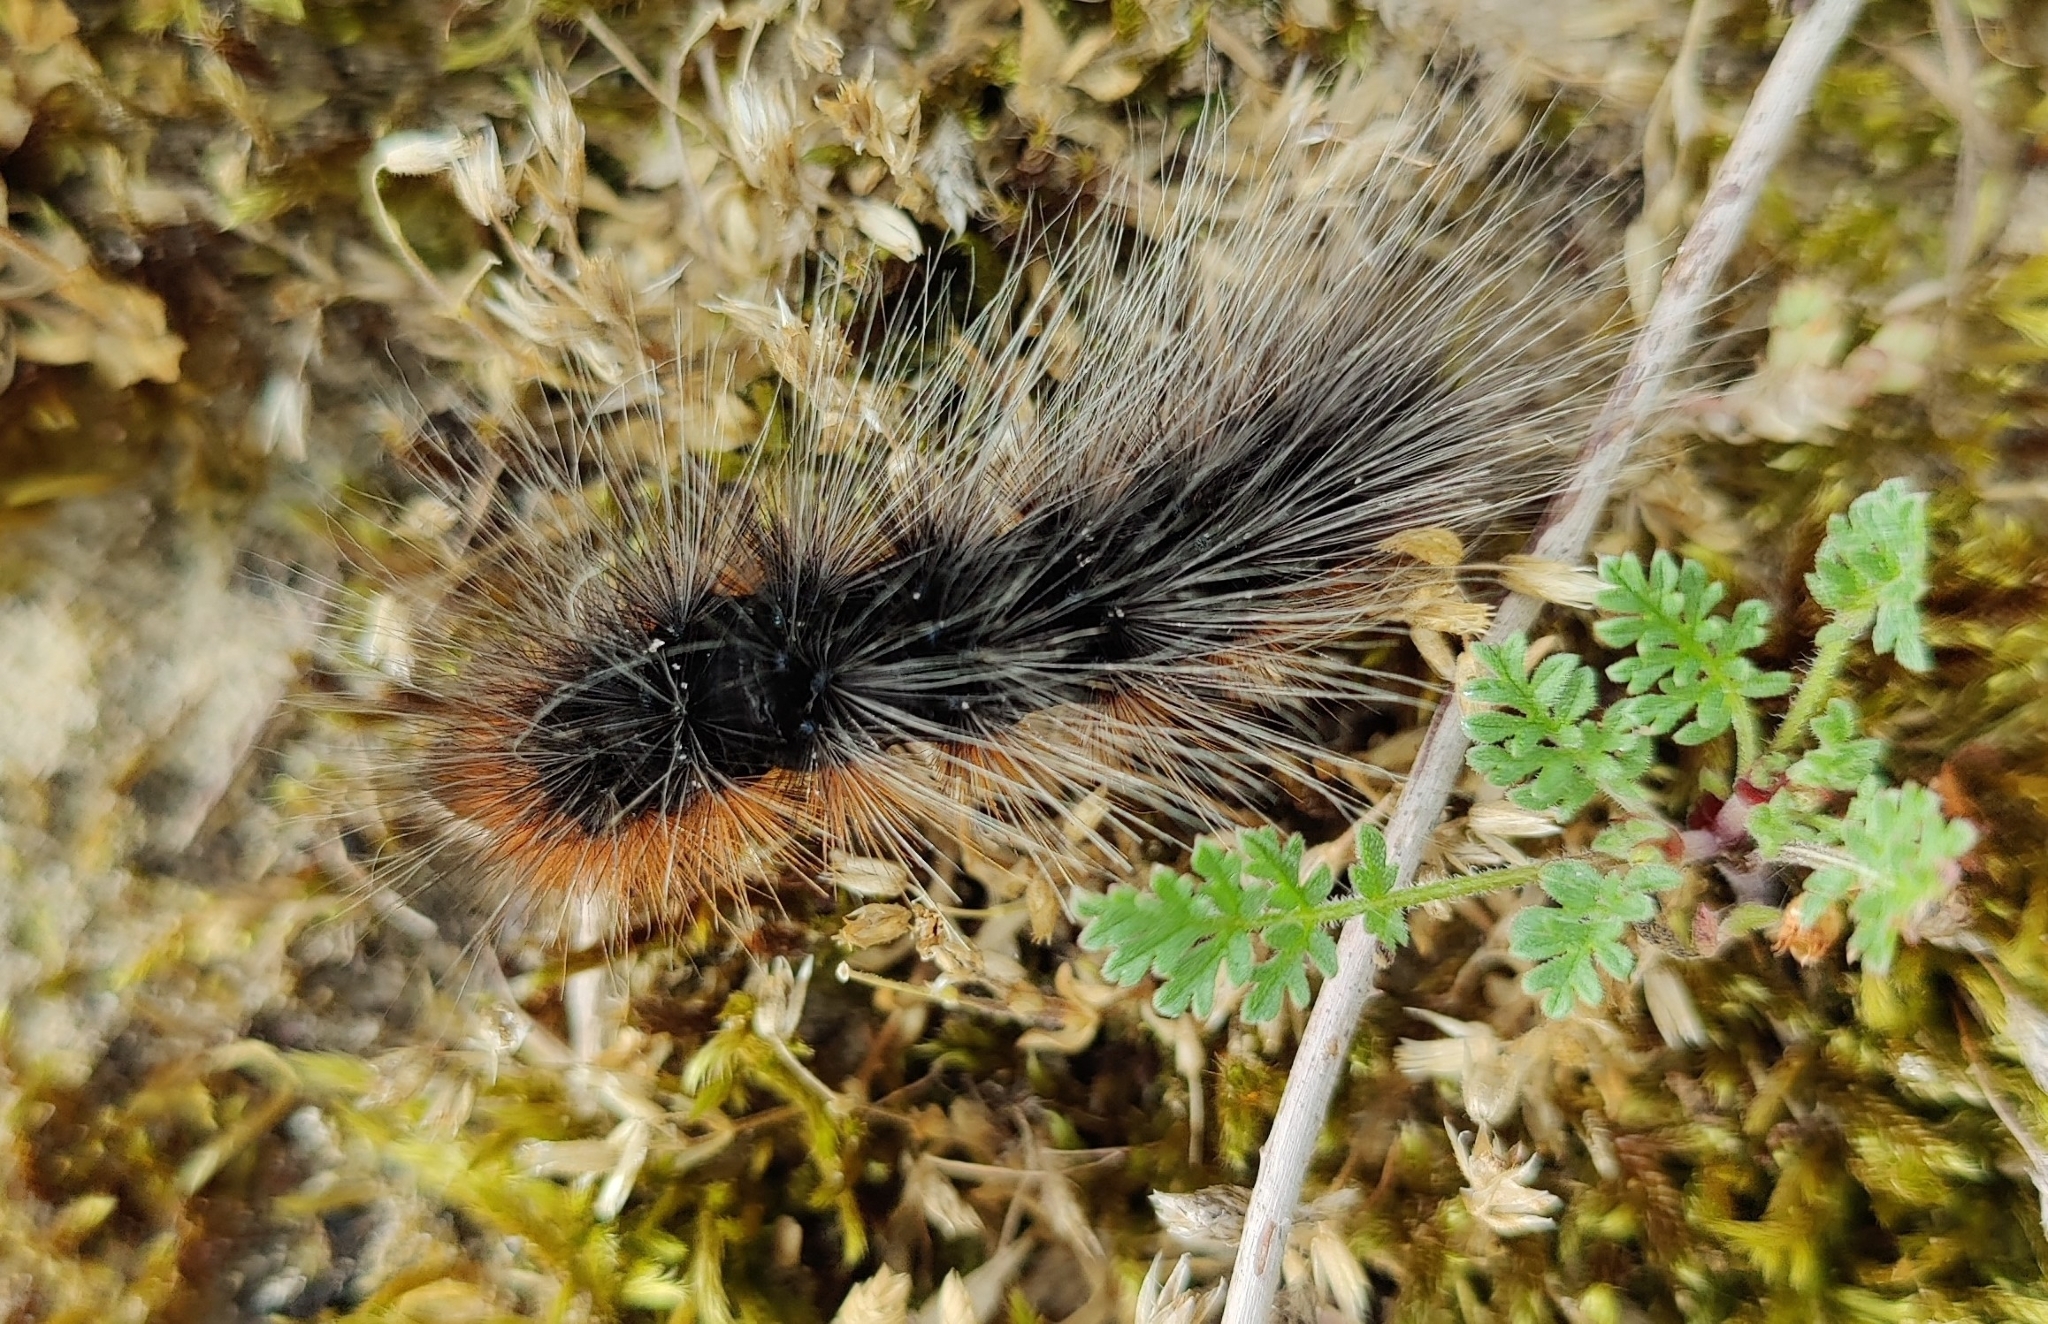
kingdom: Animalia
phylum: Arthropoda
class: Insecta
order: Lepidoptera
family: Erebidae
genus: Arctia
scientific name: Arctia caja
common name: Garden tiger
